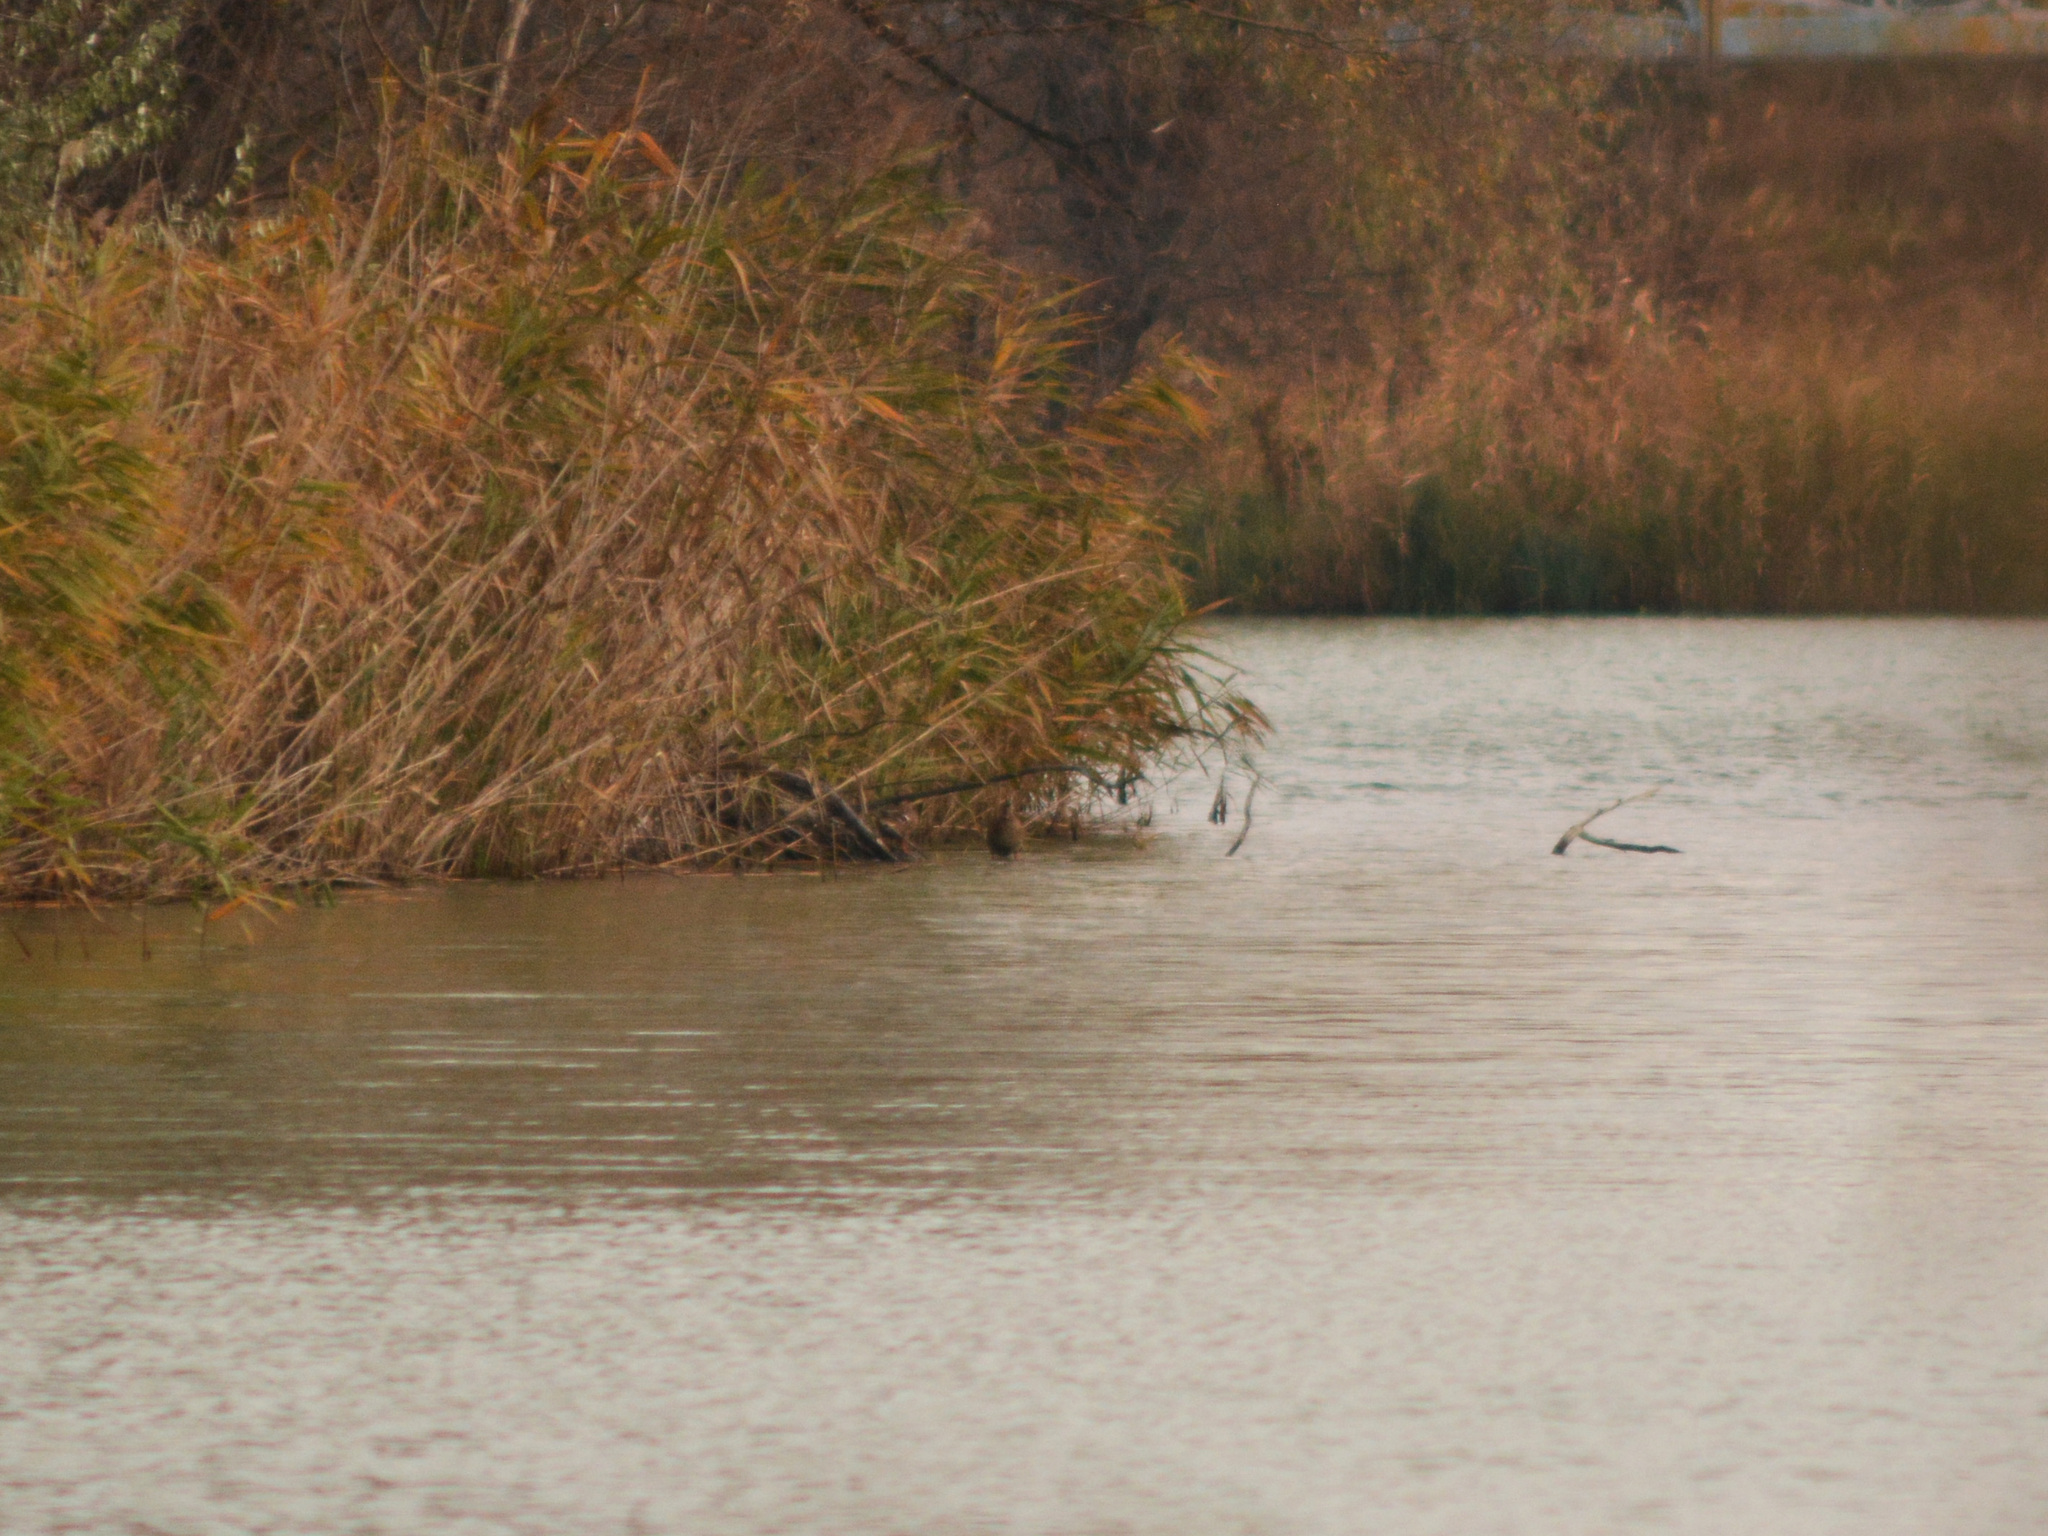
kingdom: Animalia
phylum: Chordata
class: Aves
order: Anseriformes
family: Anatidae
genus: Anas
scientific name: Anas platyrhynchos
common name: Mallard
